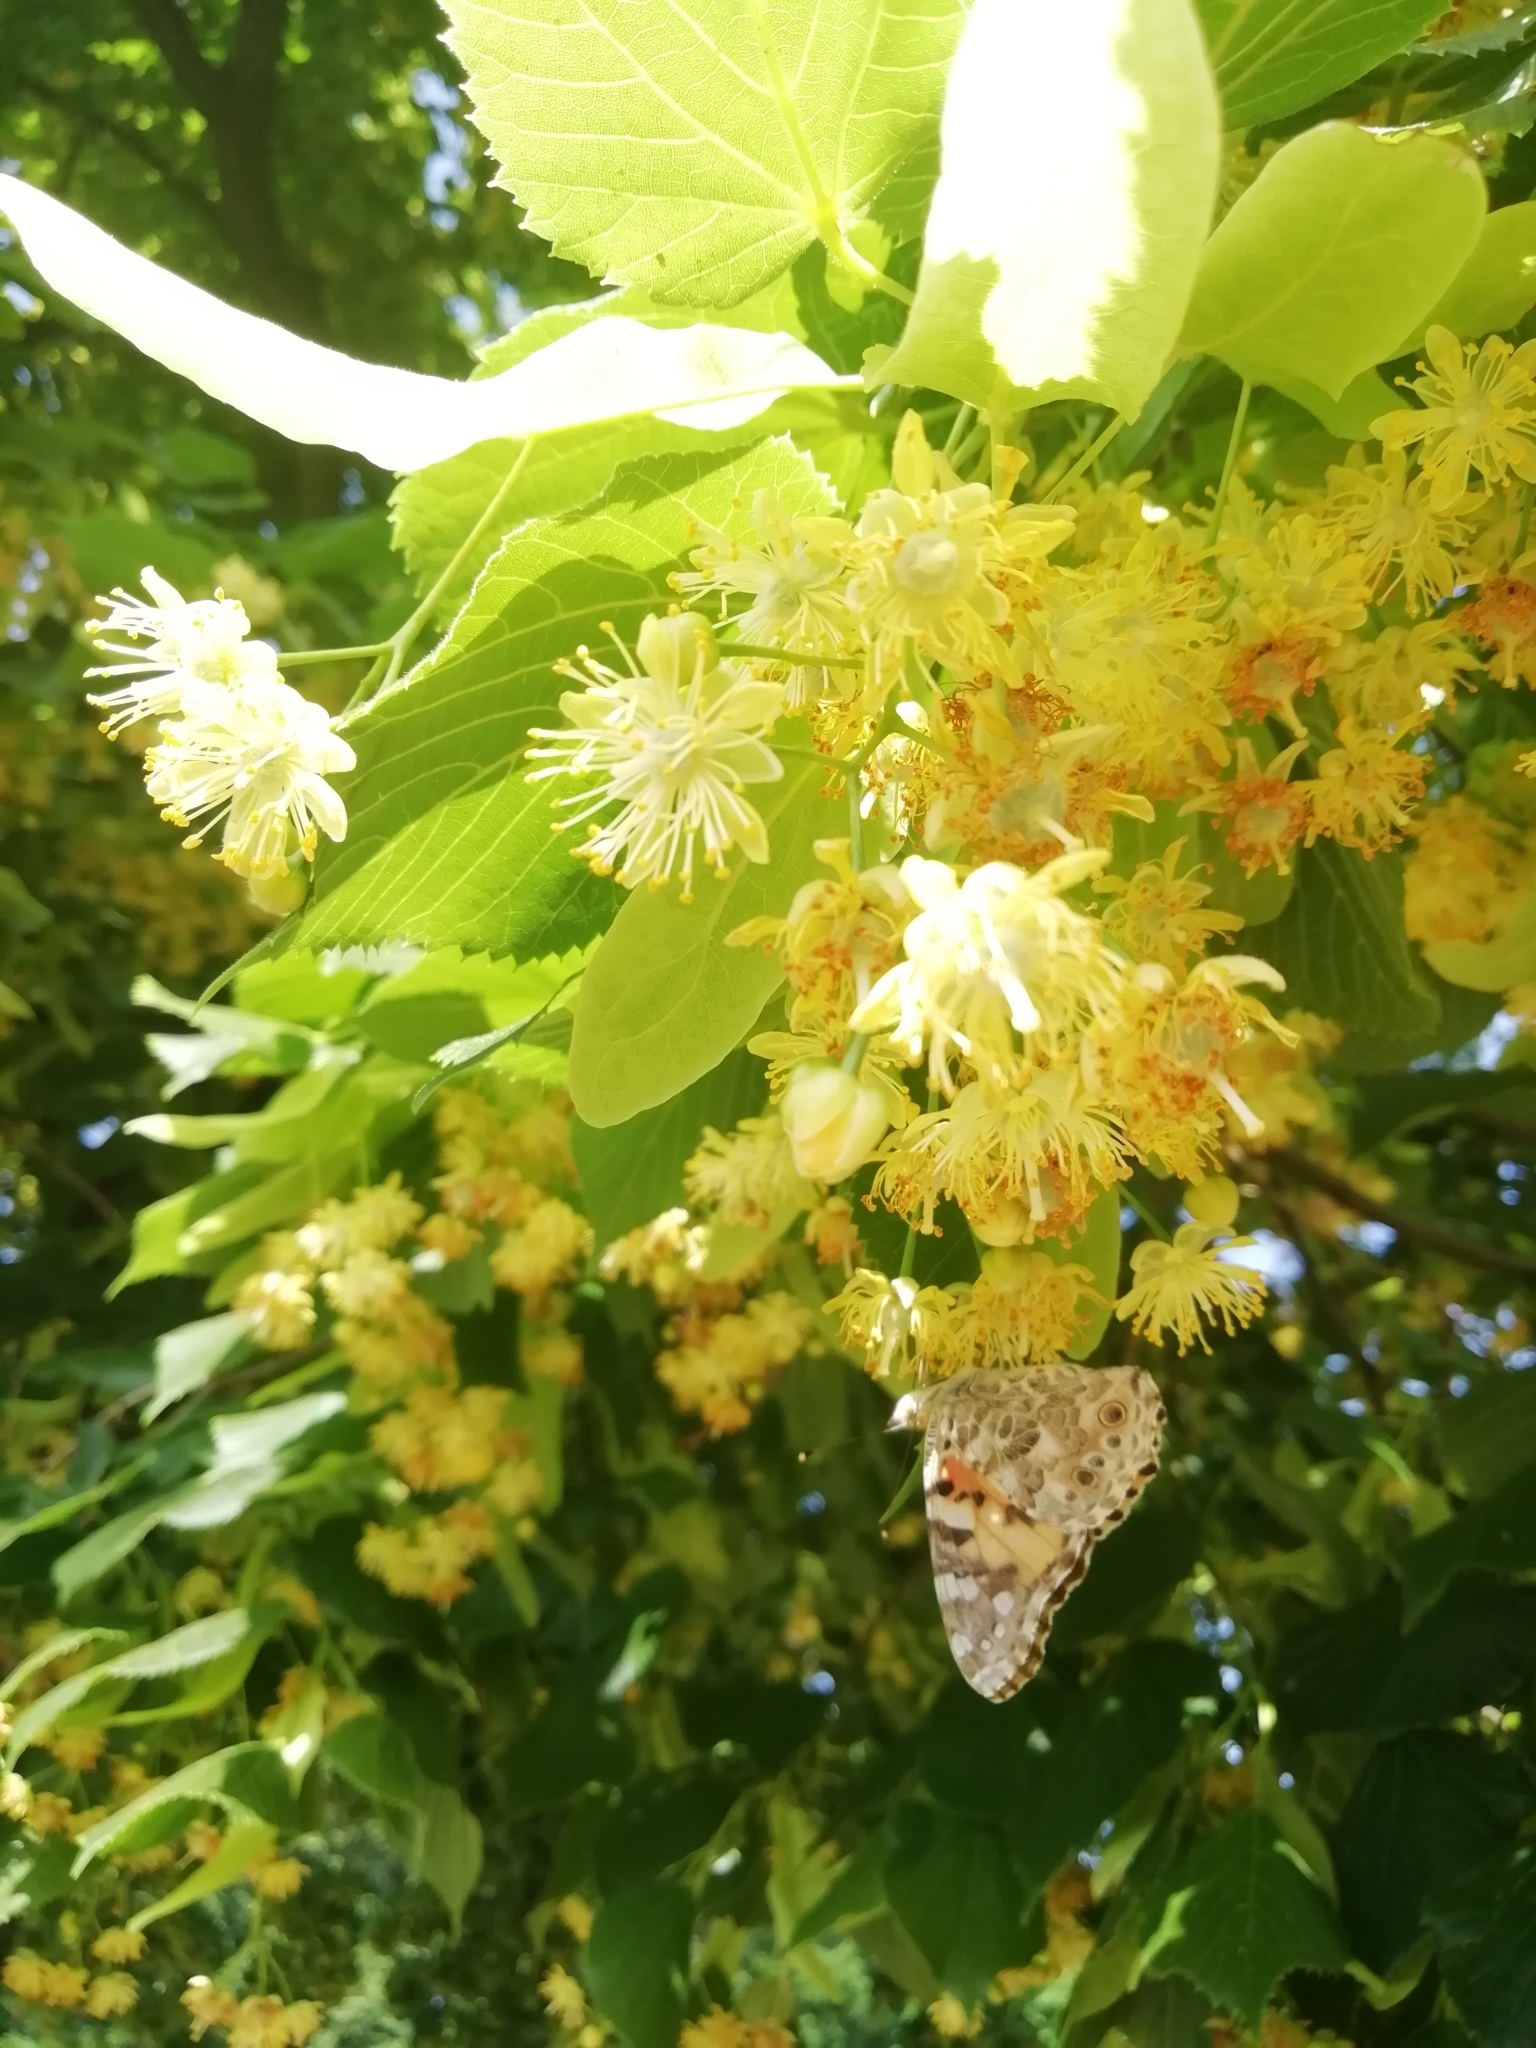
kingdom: Animalia
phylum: Arthropoda
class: Insecta
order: Lepidoptera
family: Nymphalidae
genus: Vanessa
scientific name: Vanessa cardui
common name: Painted lady
